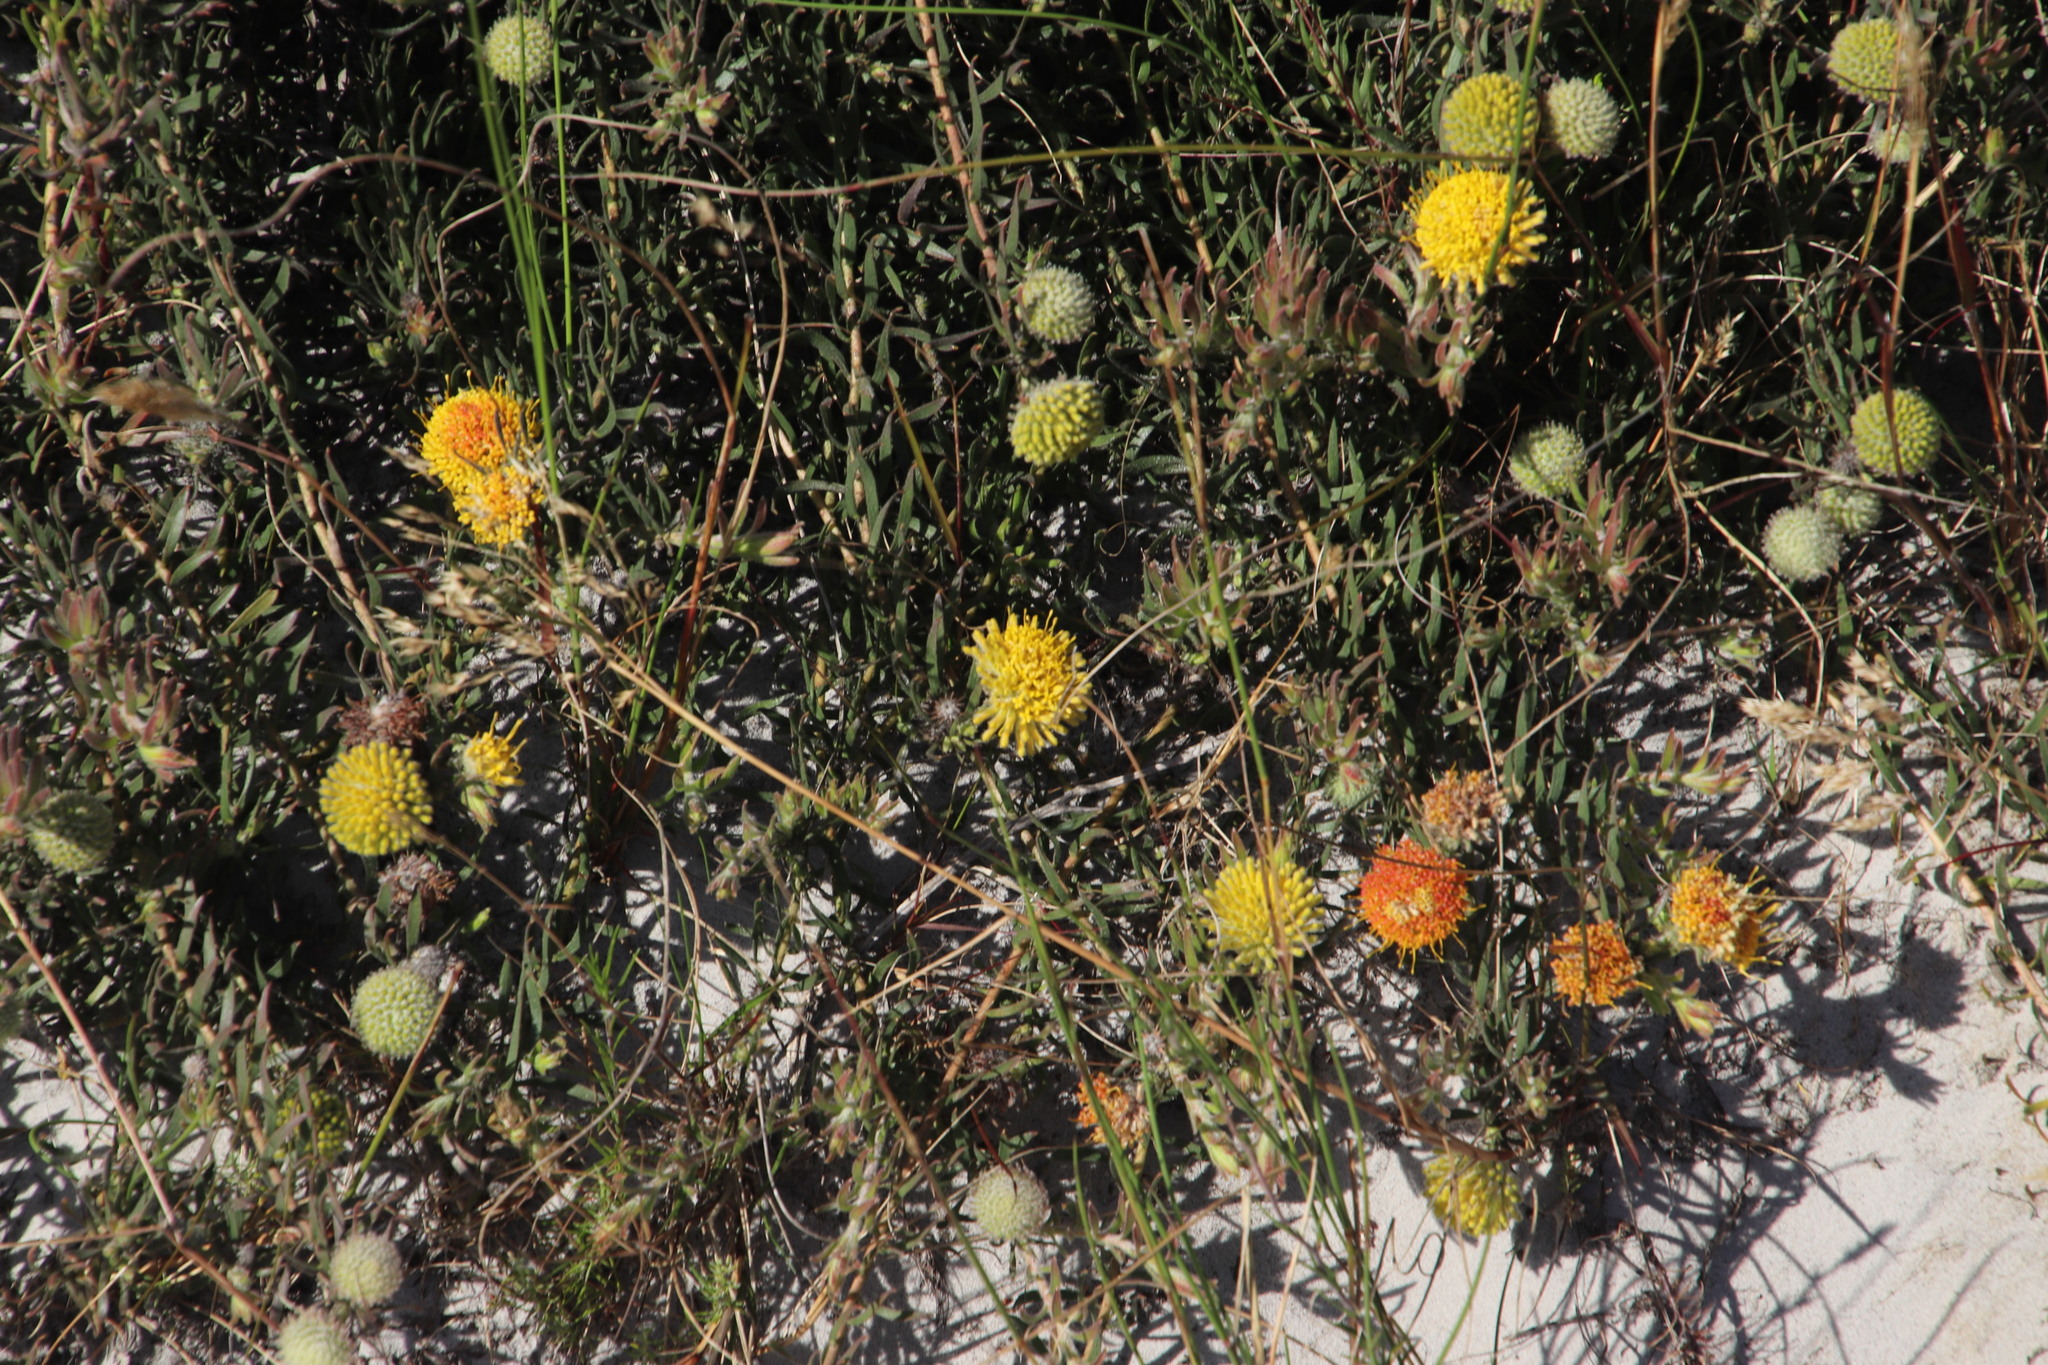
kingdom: Plantae
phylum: Tracheophyta
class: Magnoliopsida
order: Proteales
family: Proteaceae
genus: Leucospermum
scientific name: Leucospermum prostratum
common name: Yellow-trailing pincushion
